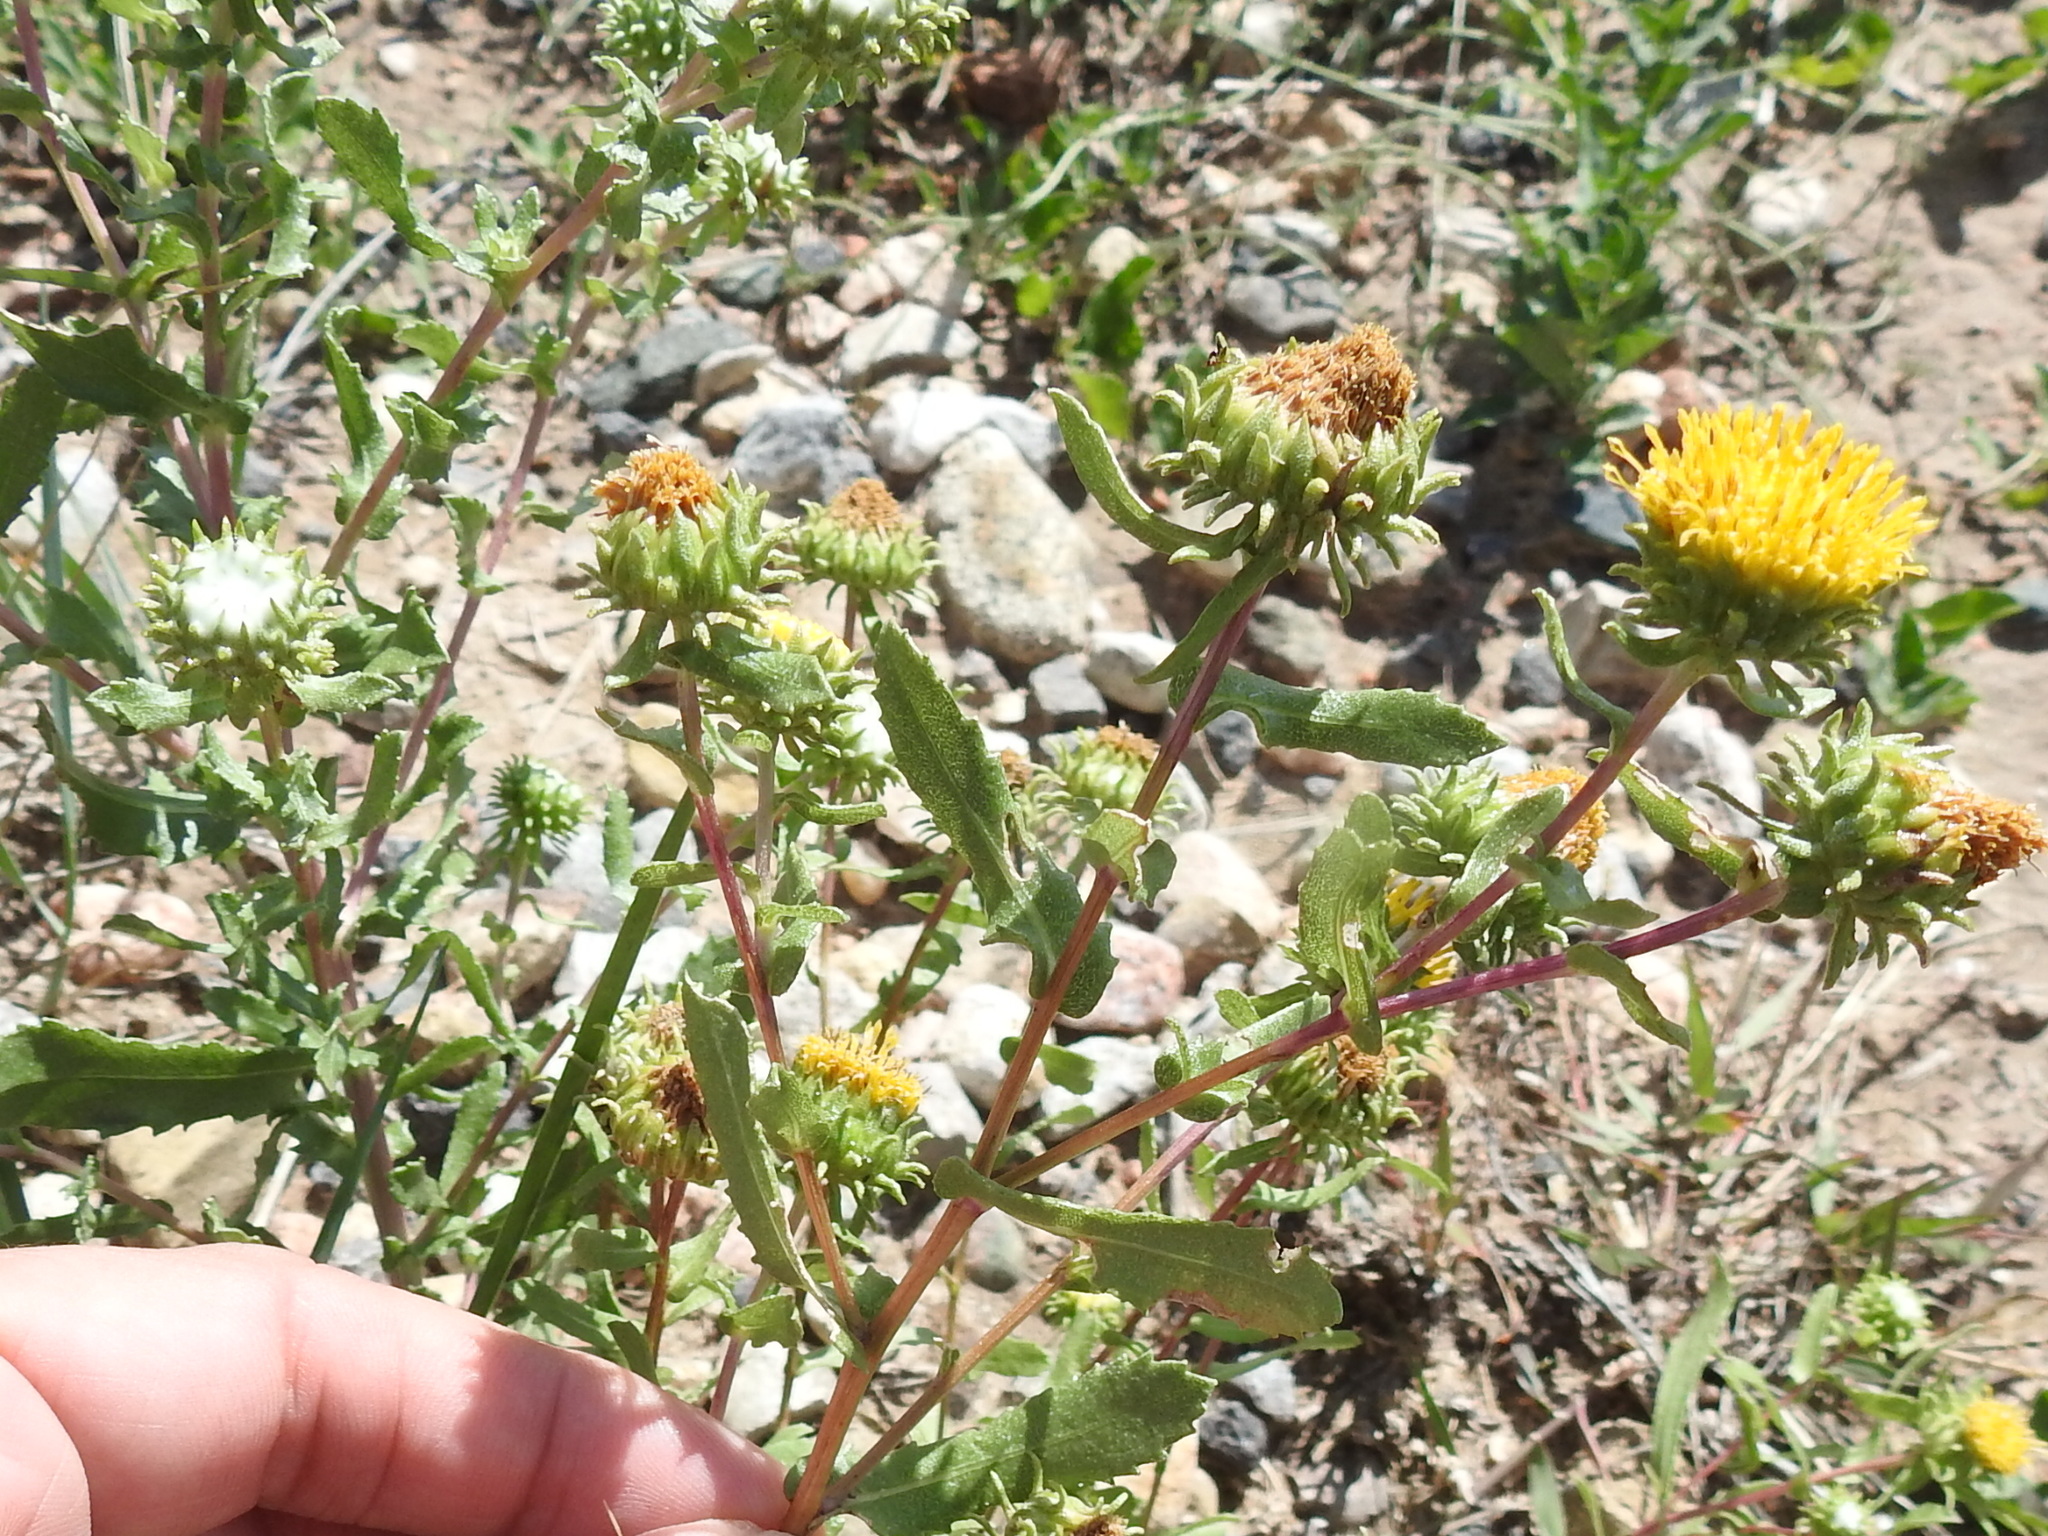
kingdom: Plantae
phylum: Tracheophyta
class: Magnoliopsida
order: Asterales
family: Asteraceae
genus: Grindelia
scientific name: Grindelia squarrosa
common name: Curly-cup gumweed
